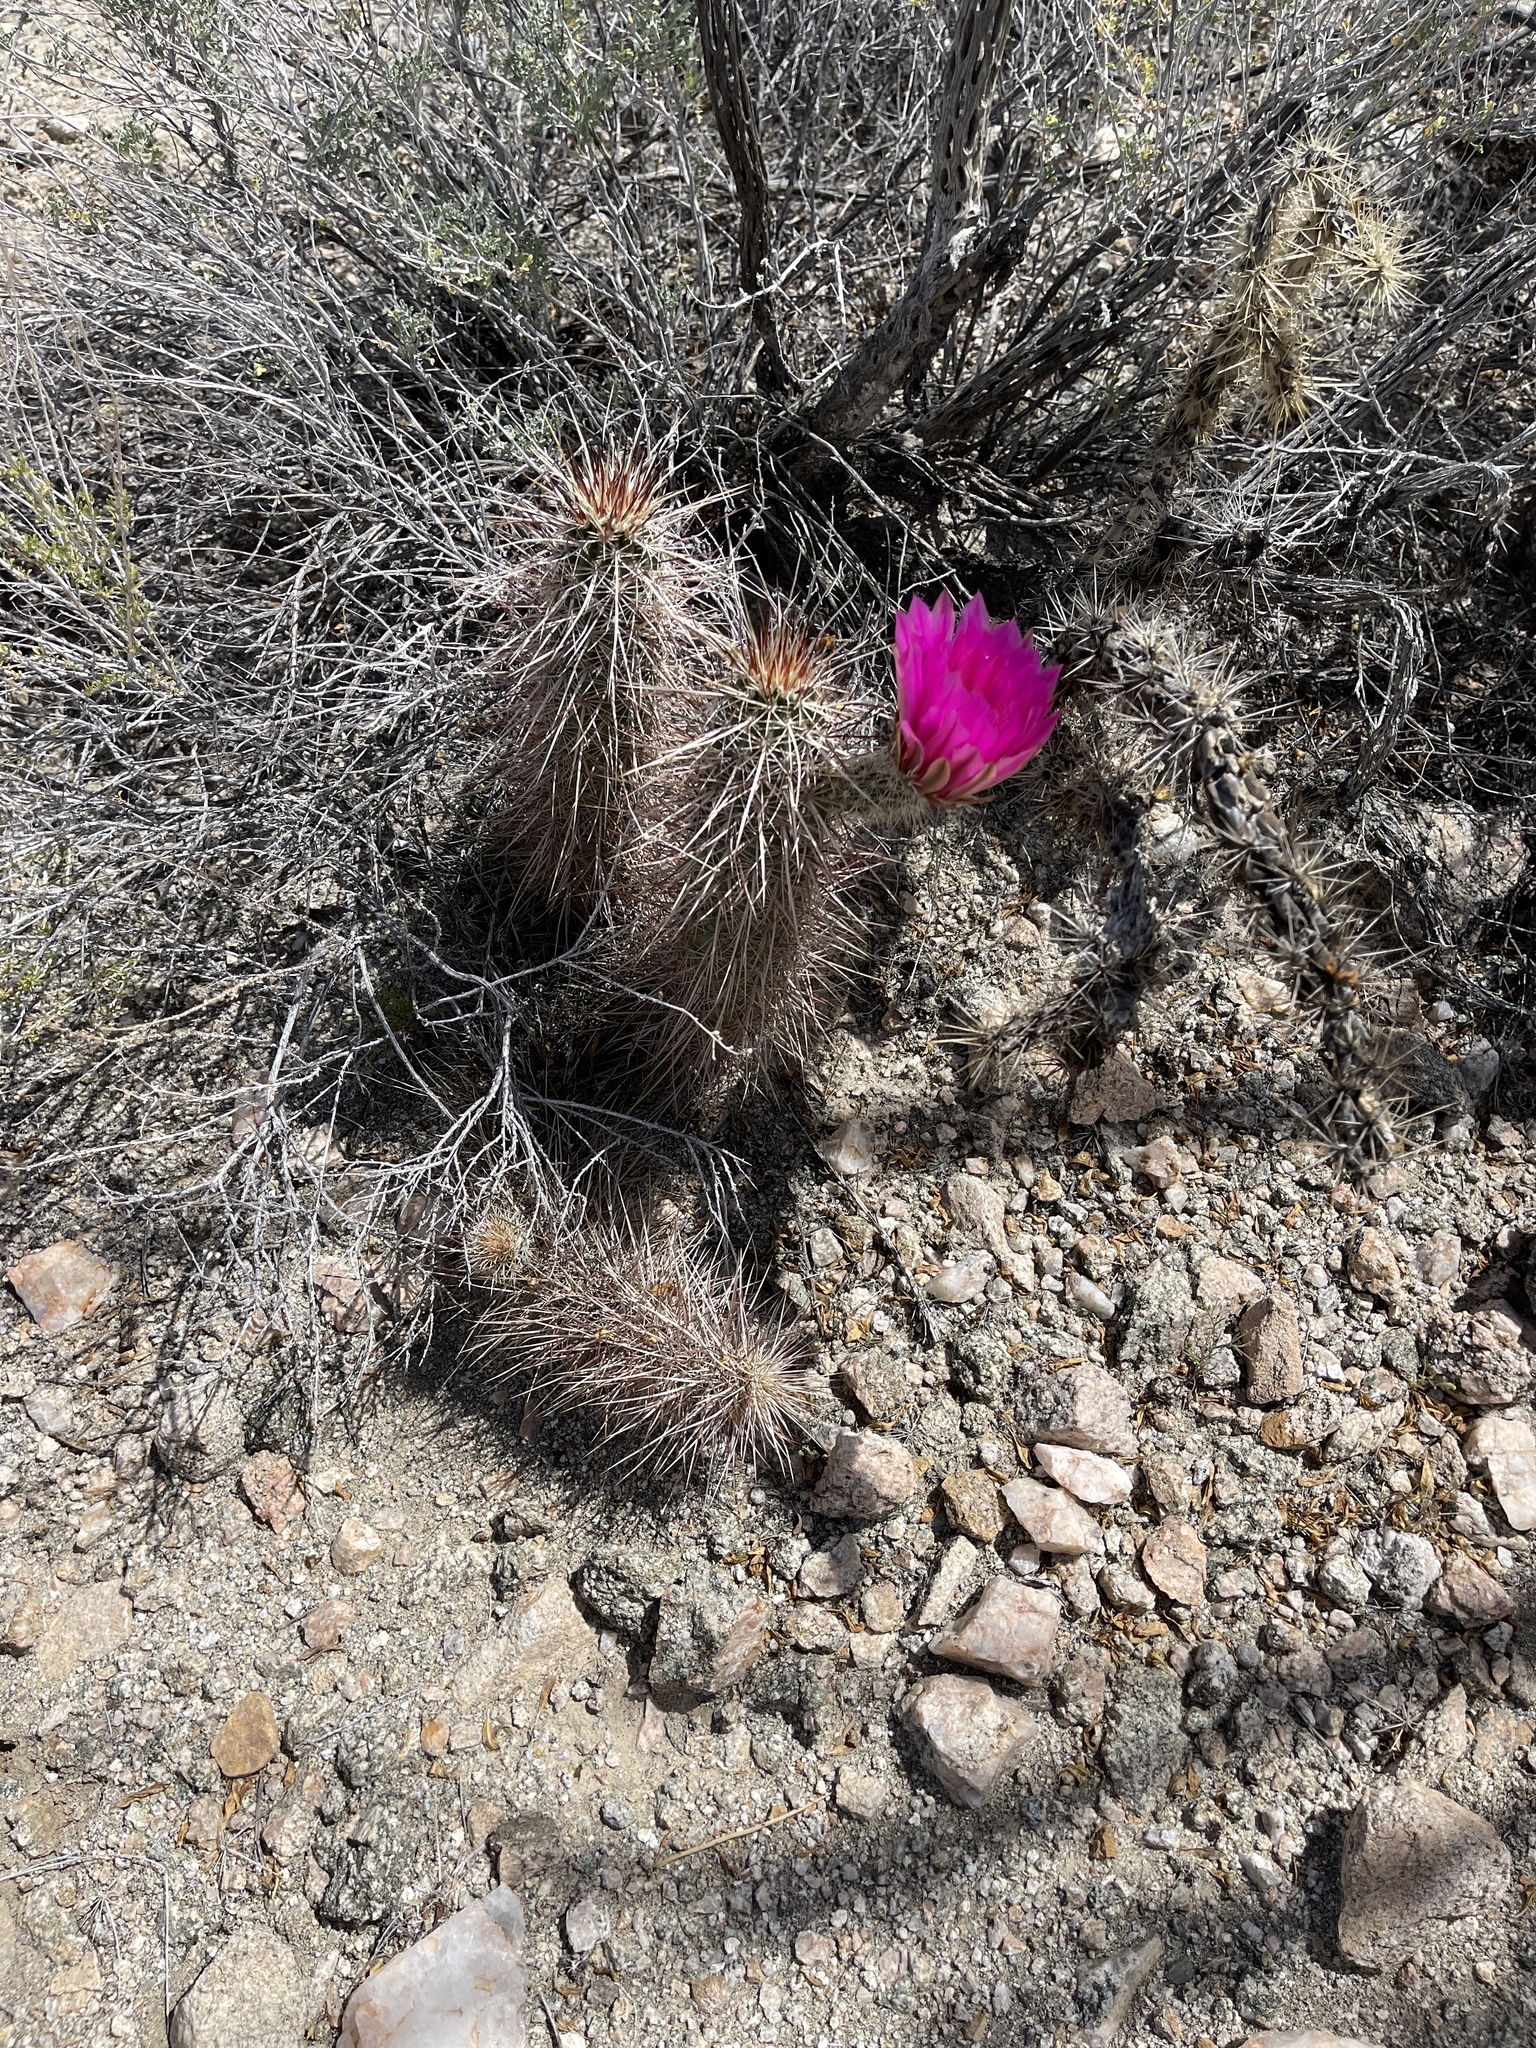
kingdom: Plantae
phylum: Tracheophyta
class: Magnoliopsida
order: Caryophyllales
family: Cactaceae
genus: Echinocereus
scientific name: Echinocereus engelmannii
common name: Engelmann's hedgehog cactus
